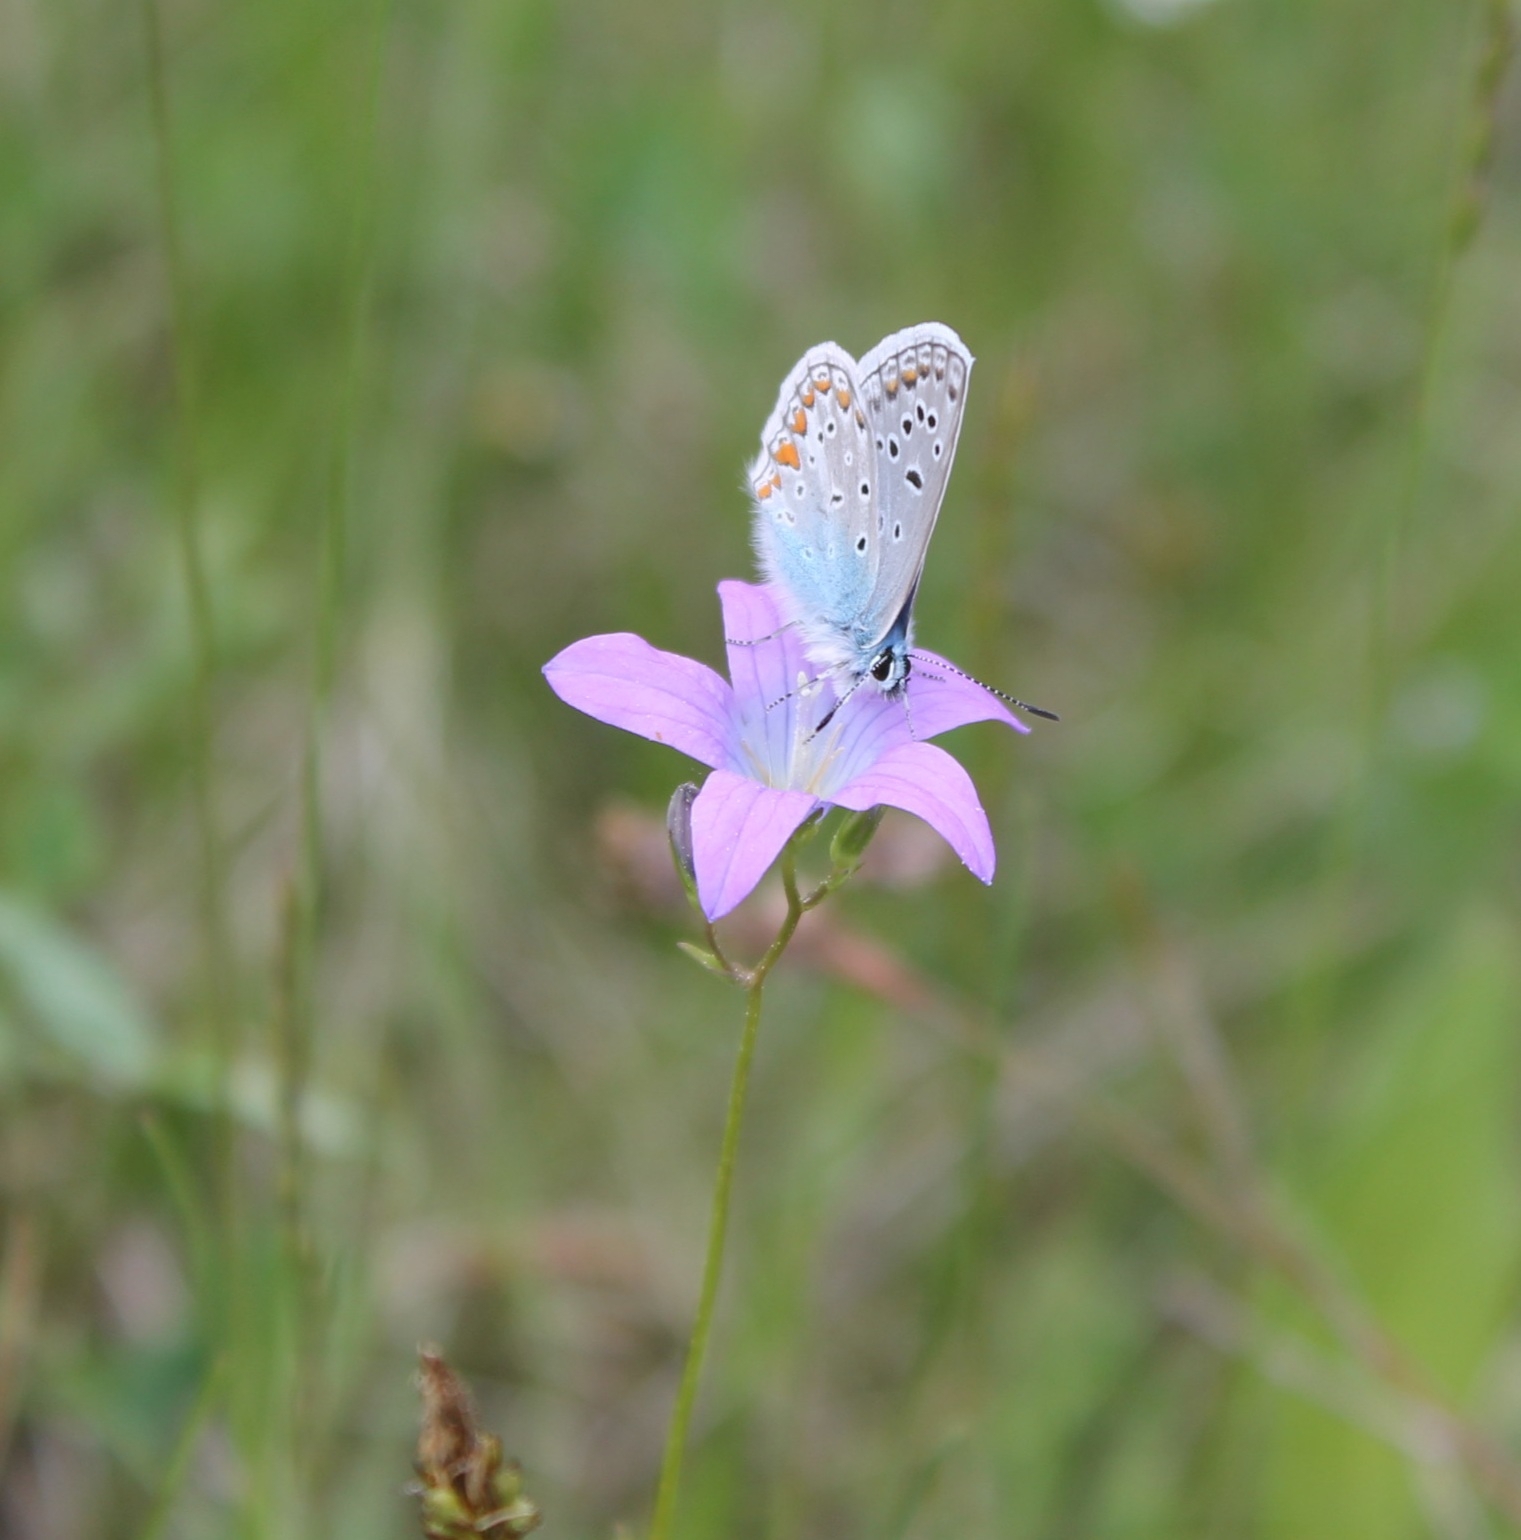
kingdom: Animalia
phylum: Arthropoda
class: Insecta
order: Lepidoptera
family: Lycaenidae
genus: Polyommatus
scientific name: Polyommatus icarus
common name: Common blue
